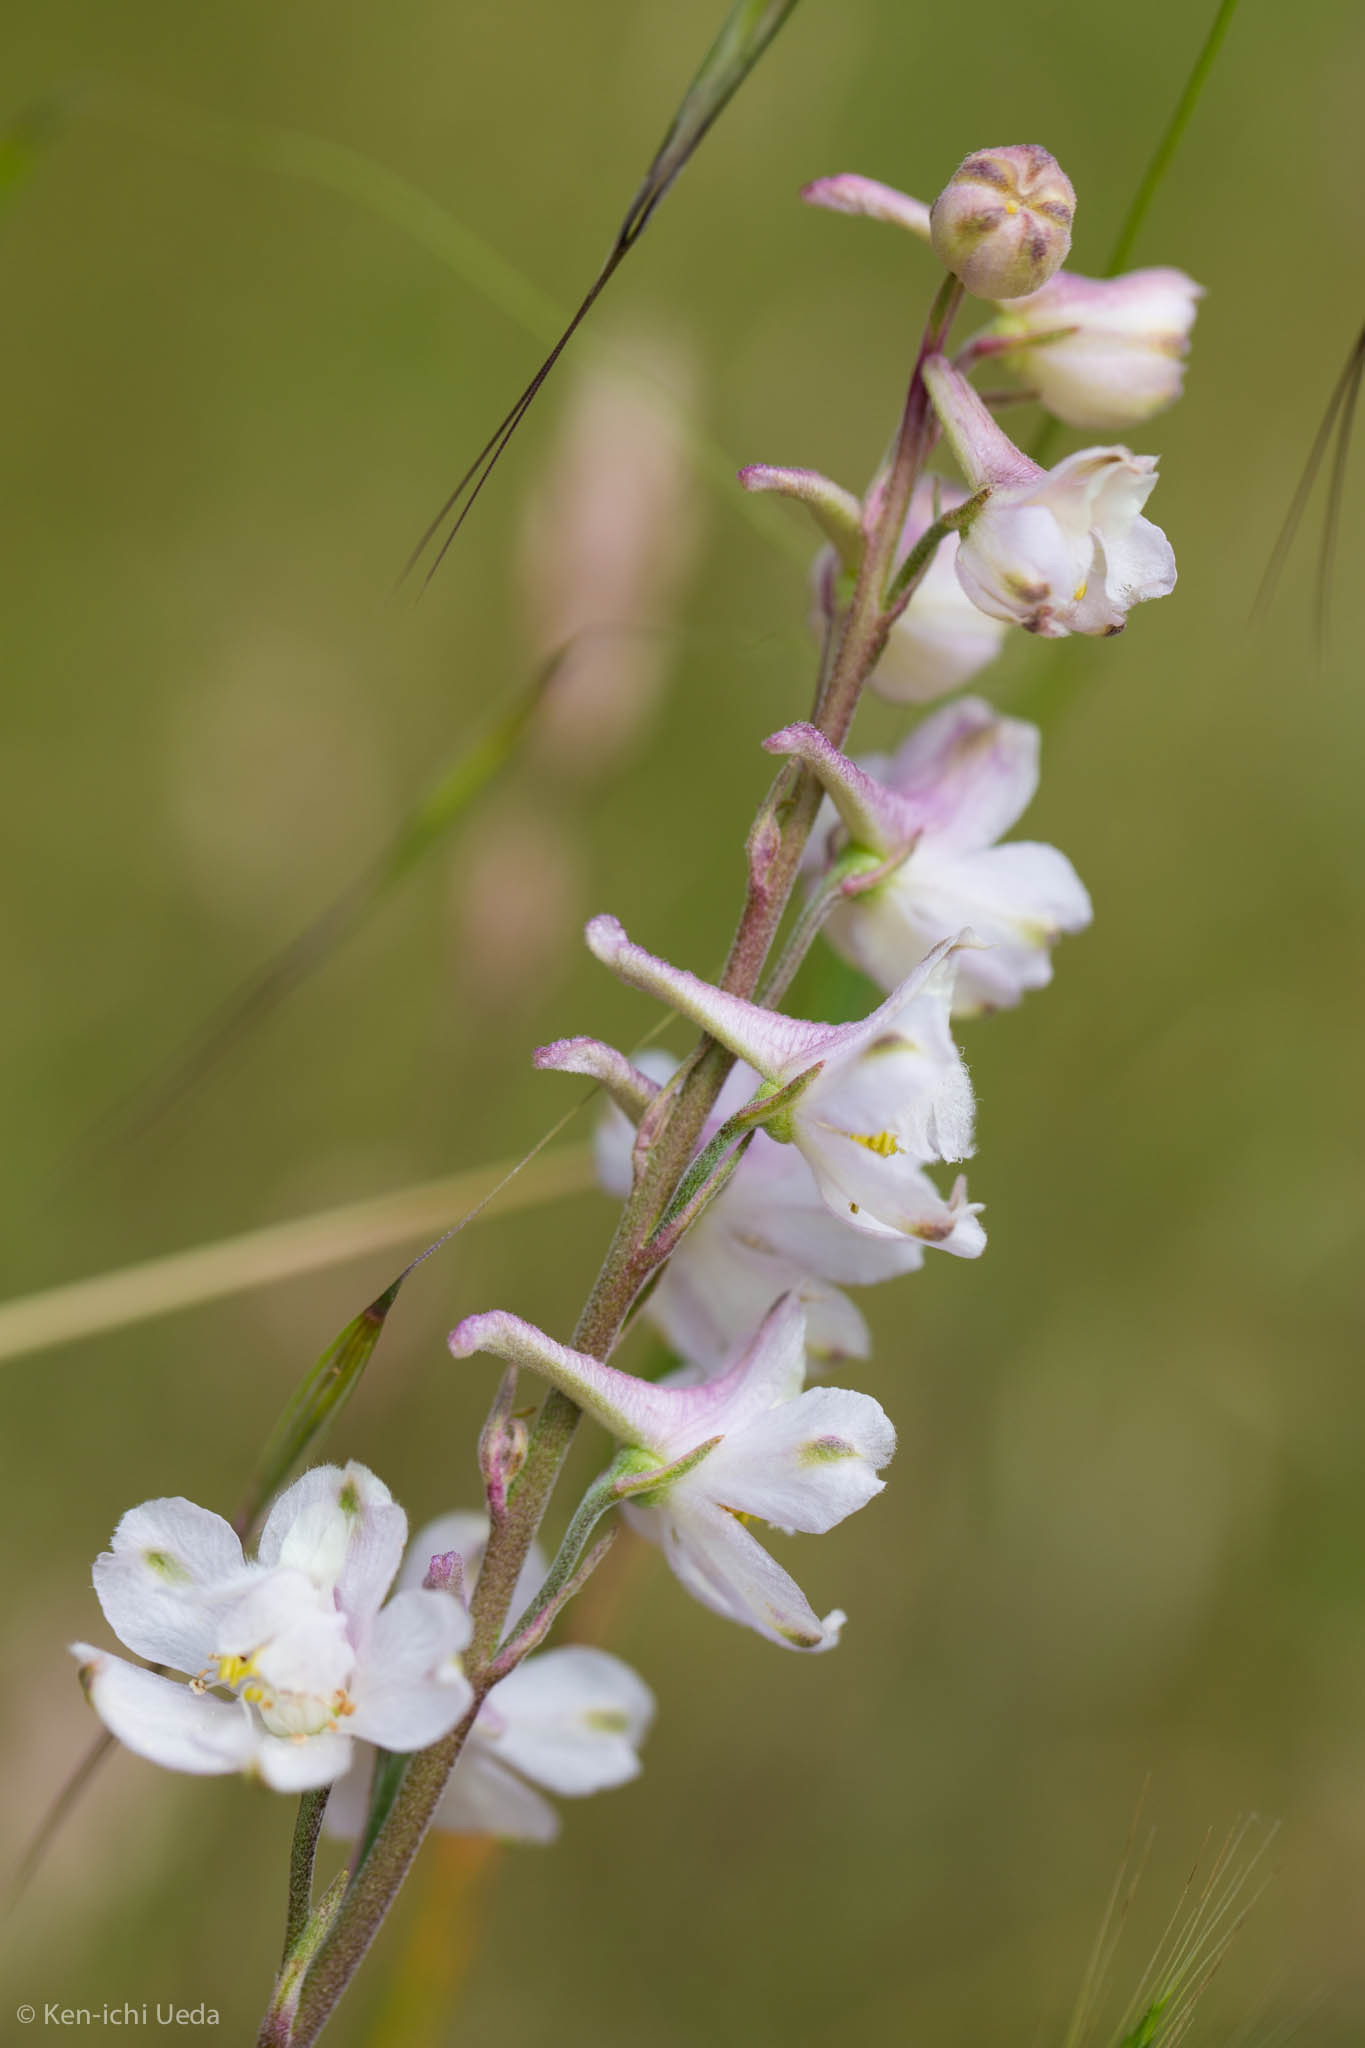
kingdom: Plantae
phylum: Tracheophyta
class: Magnoliopsida
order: Ranunculales
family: Ranunculaceae
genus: Delphinium
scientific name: Delphinium hesperium
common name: Western larkspur
